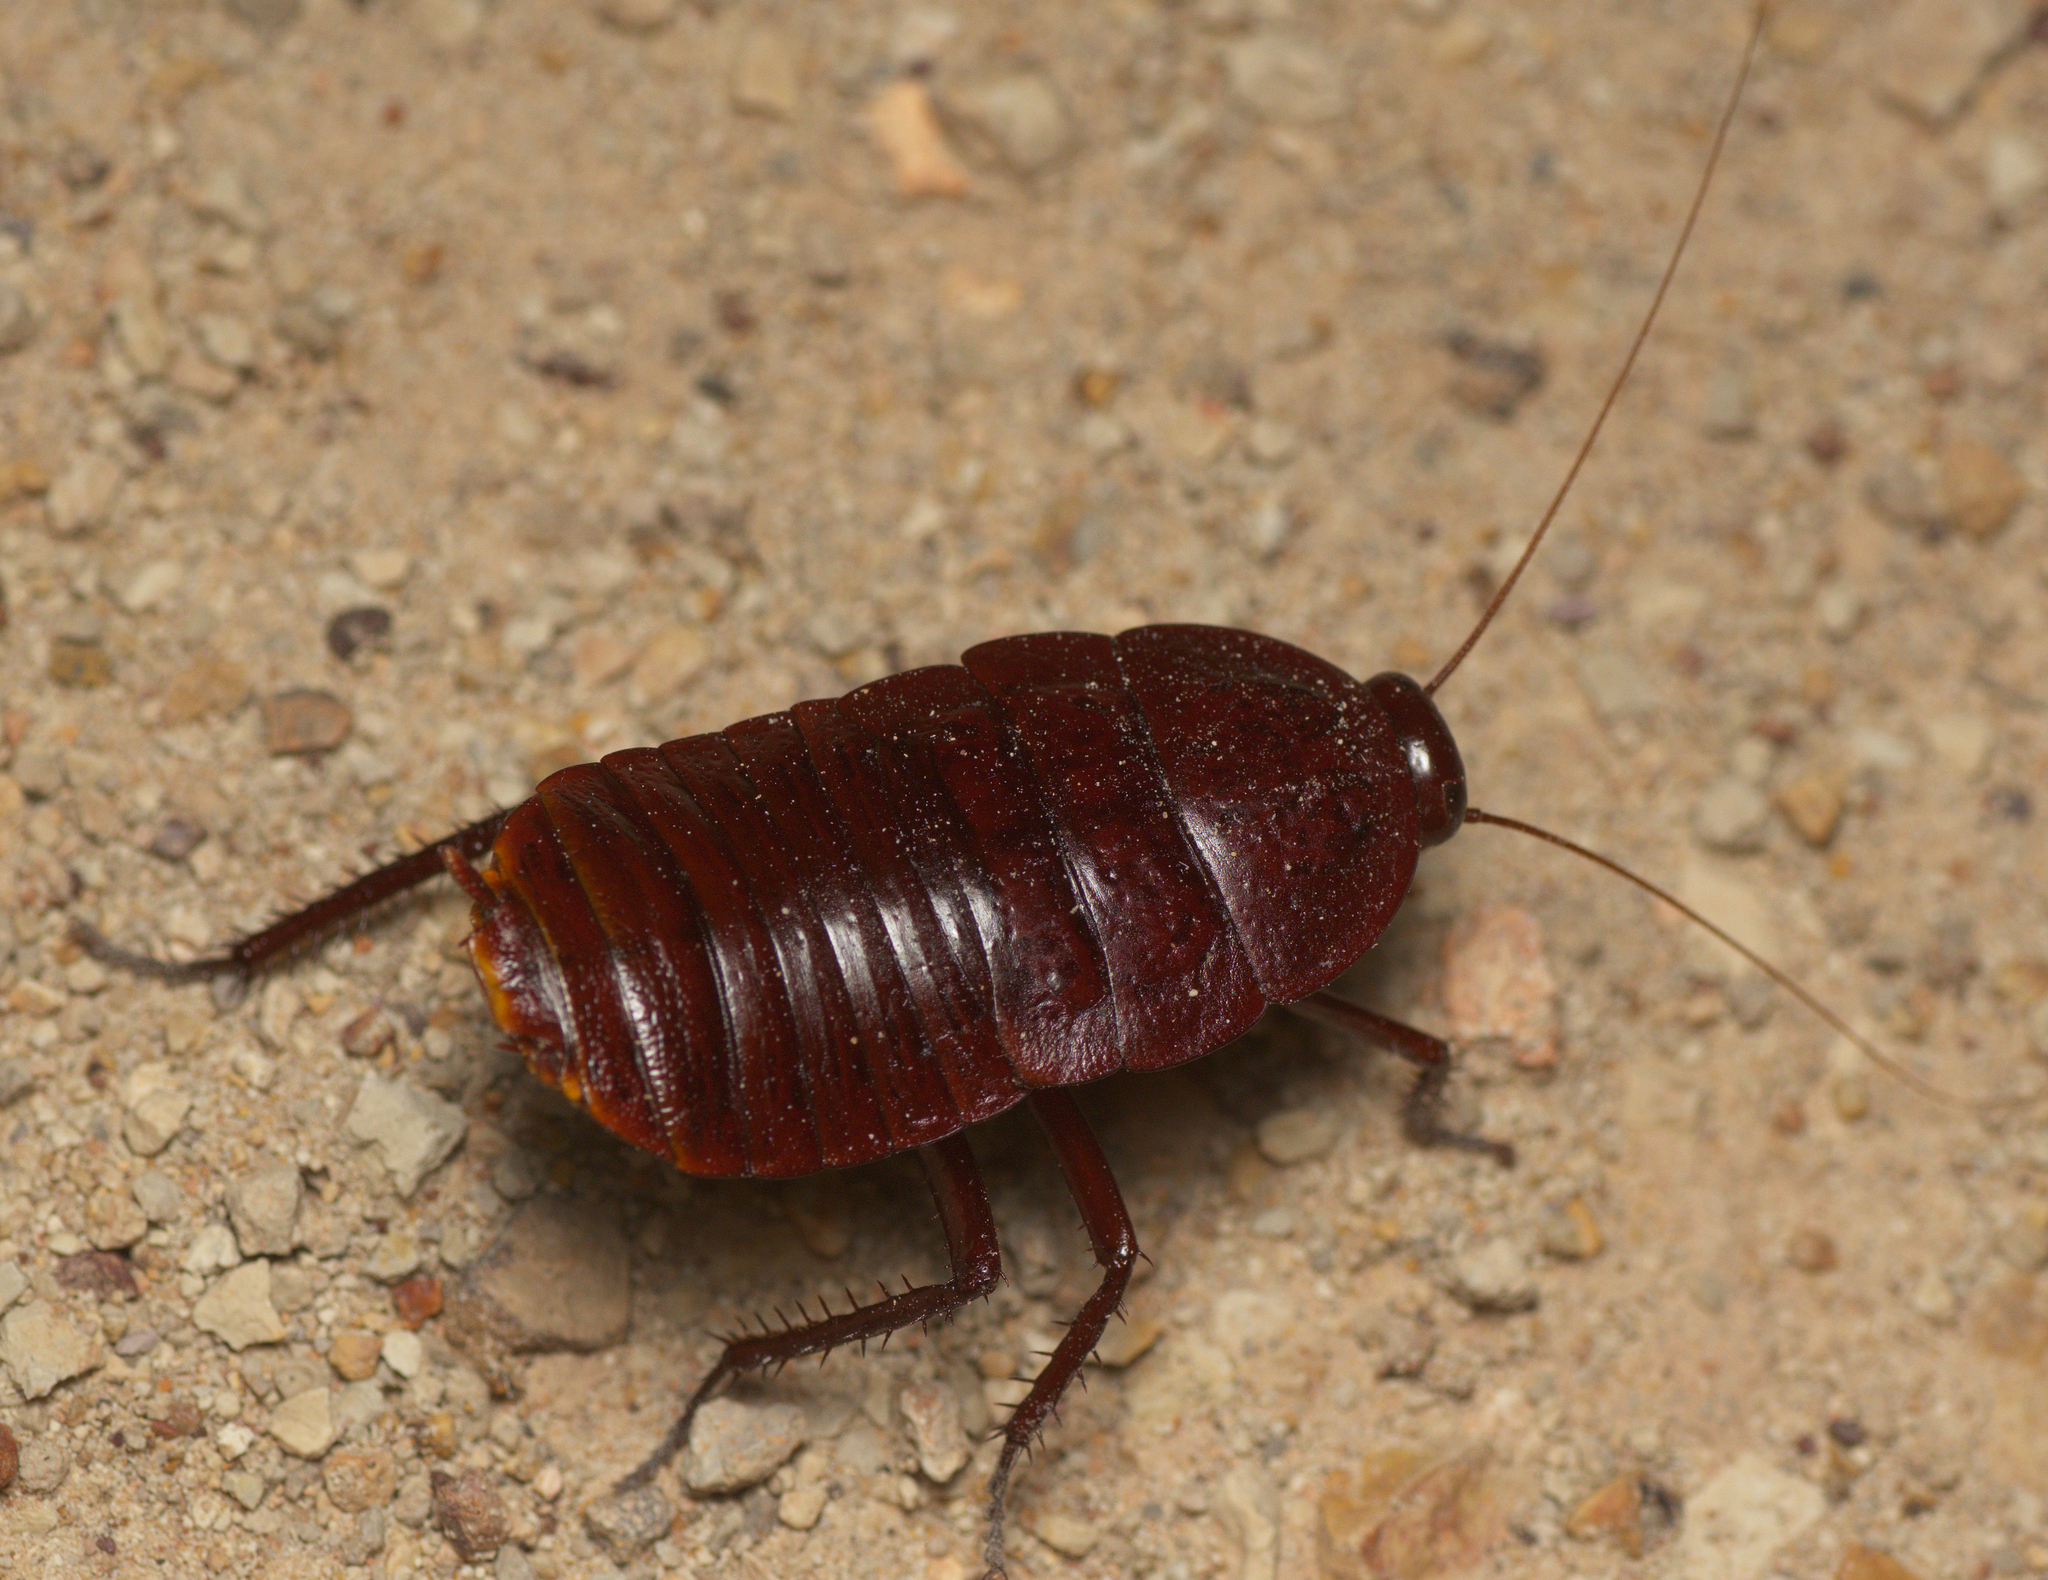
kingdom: Animalia
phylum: Arthropoda
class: Insecta
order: Blattodea
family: Blattidae
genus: Anamesia
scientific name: Anamesia lambii
